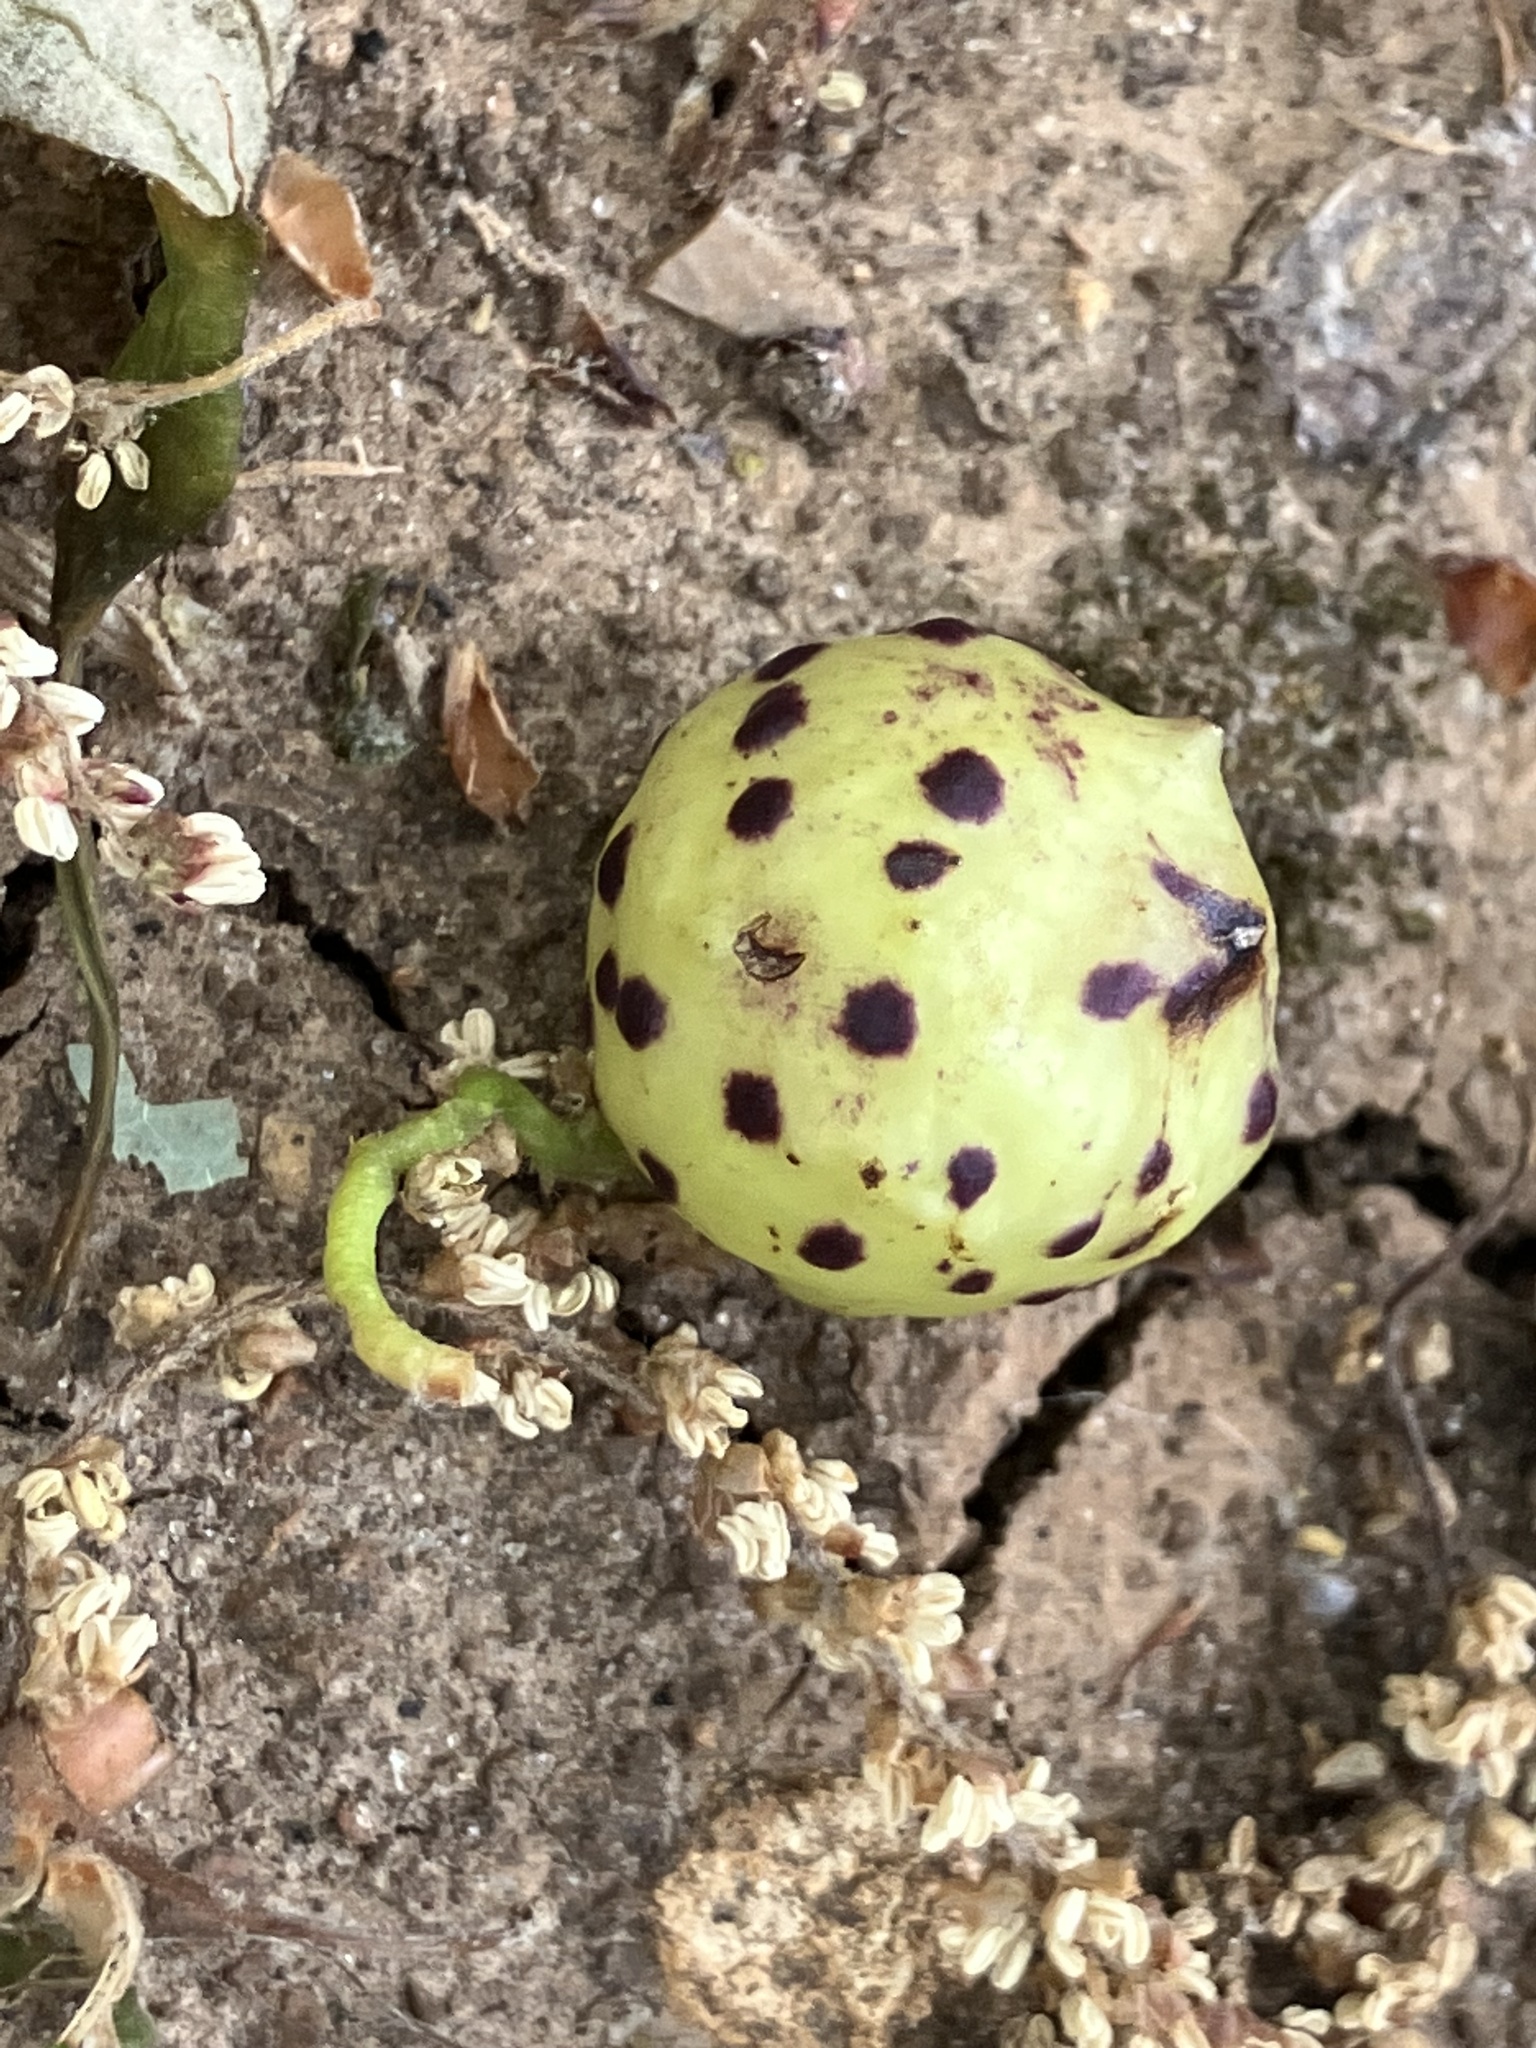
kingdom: Animalia
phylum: Arthropoda
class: Insecta
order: Hymenoptera
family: Cynipidae
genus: Amphibolips
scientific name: Amphibolips
